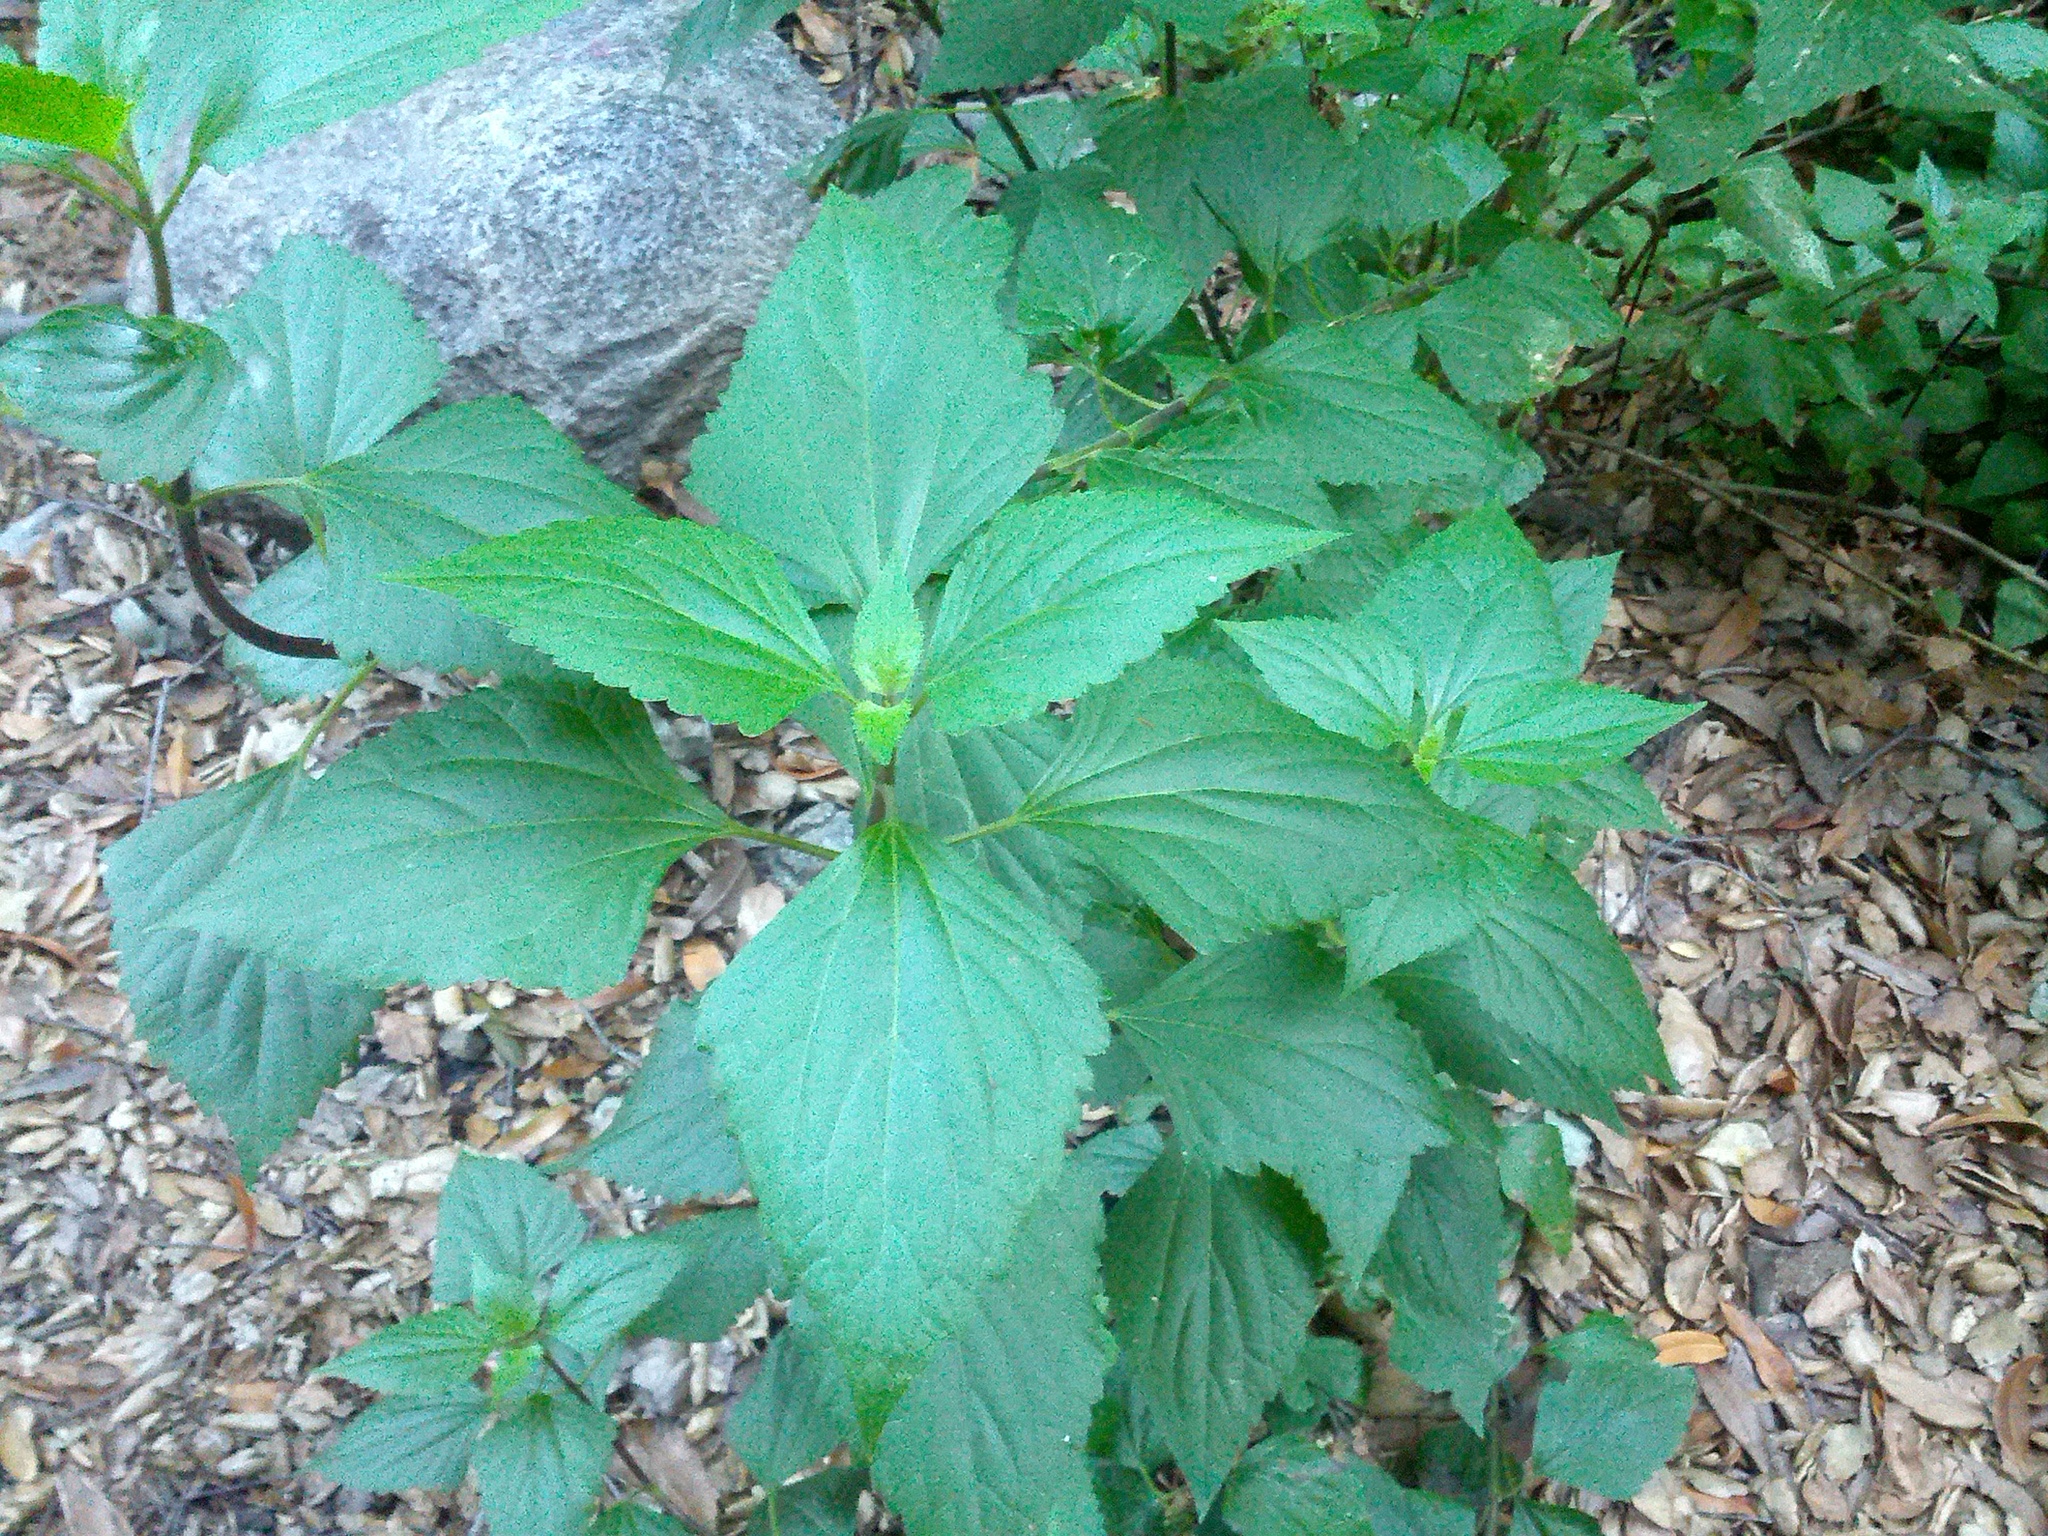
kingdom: Plantae
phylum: Tracheophyta
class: Magnoliopsida
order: Asterales
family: Asteraceae
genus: Ageratina
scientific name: Ageratina adenophora
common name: Sticky snakeroot
